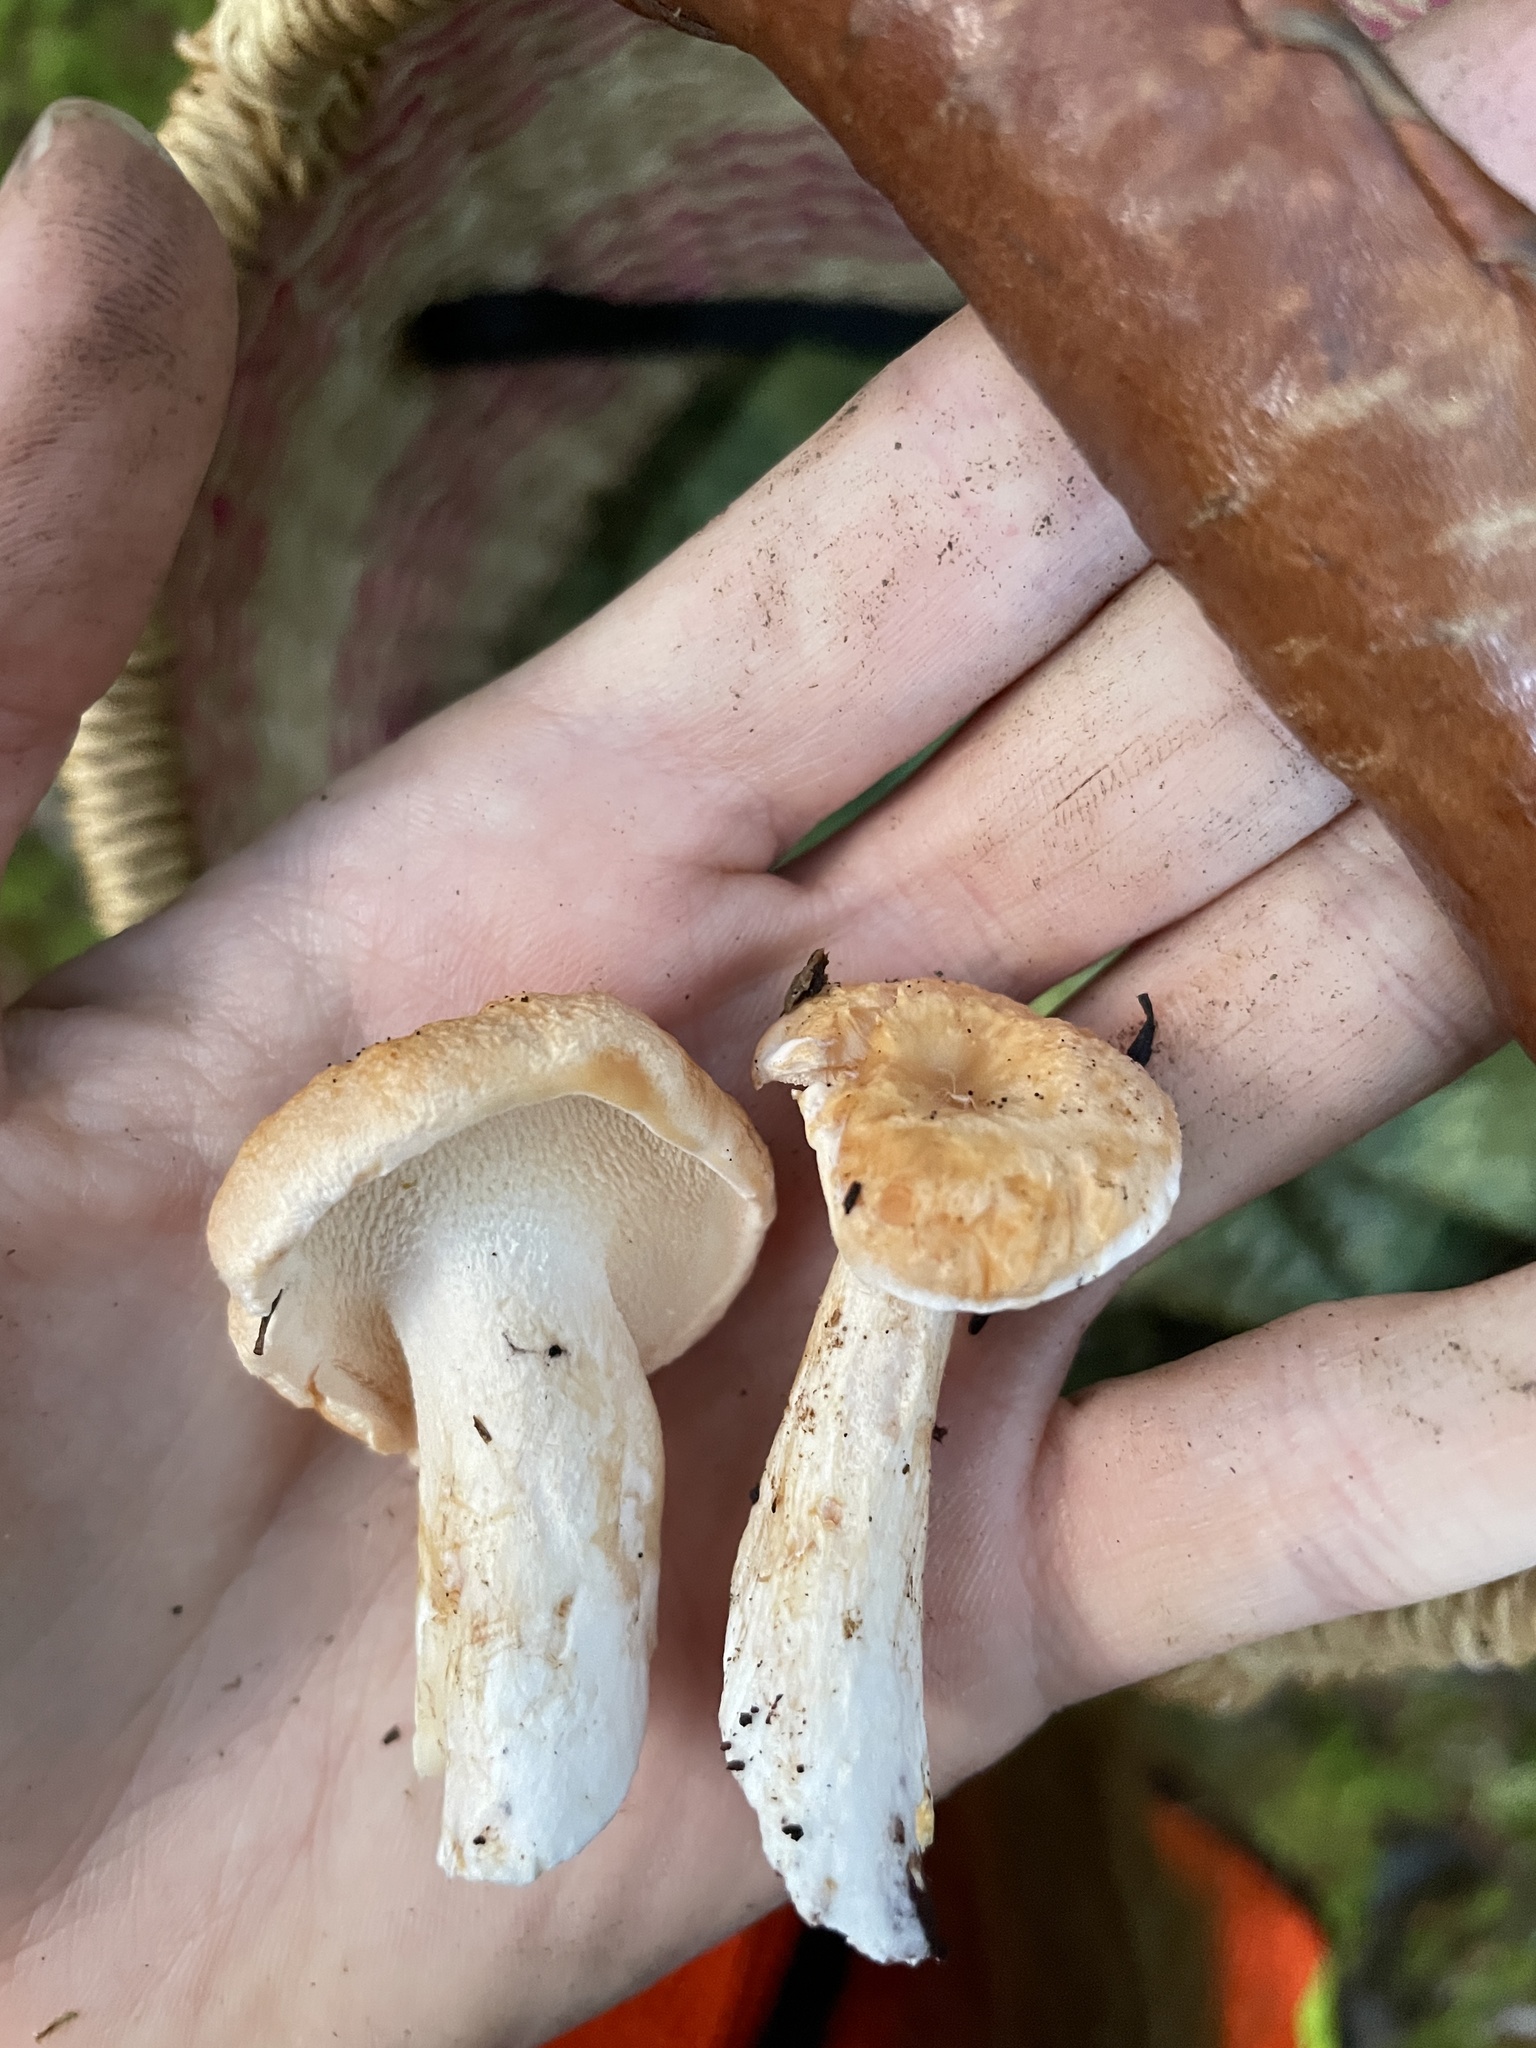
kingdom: Fungi
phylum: Basidiomycota
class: Agaricomycetes
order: Cantharellales
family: Hydnaceae
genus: Hydnum
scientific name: Hydnum oregonense
